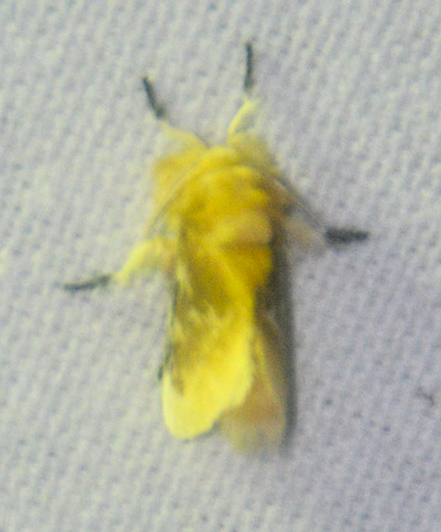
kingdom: Animalia
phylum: Arthropoda
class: Insecta
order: Lepidoptera
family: Megalopygidae
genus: Megalopyge
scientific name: Megalopyge opercularis
